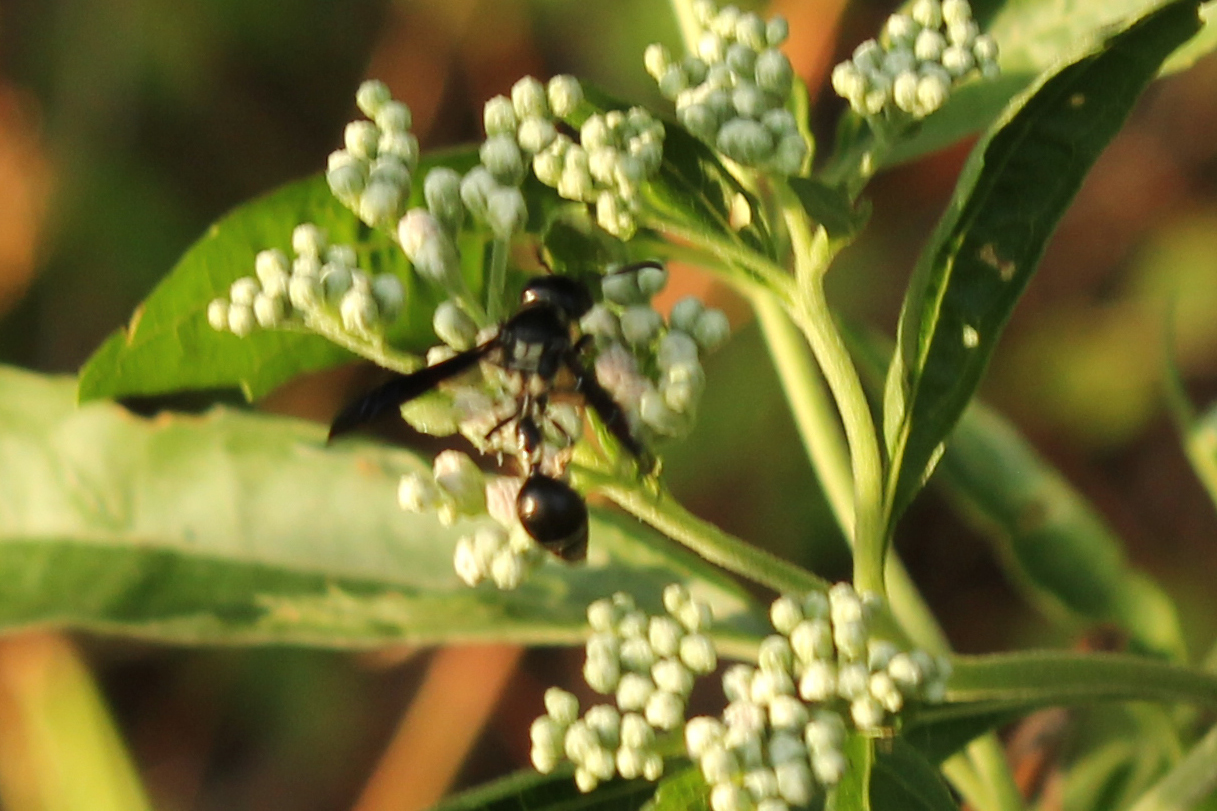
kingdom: Animalia
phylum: Arthropoda
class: Insecta
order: Hymenoptera
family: Eumenidae
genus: Zethus
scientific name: Zethus spinipes
